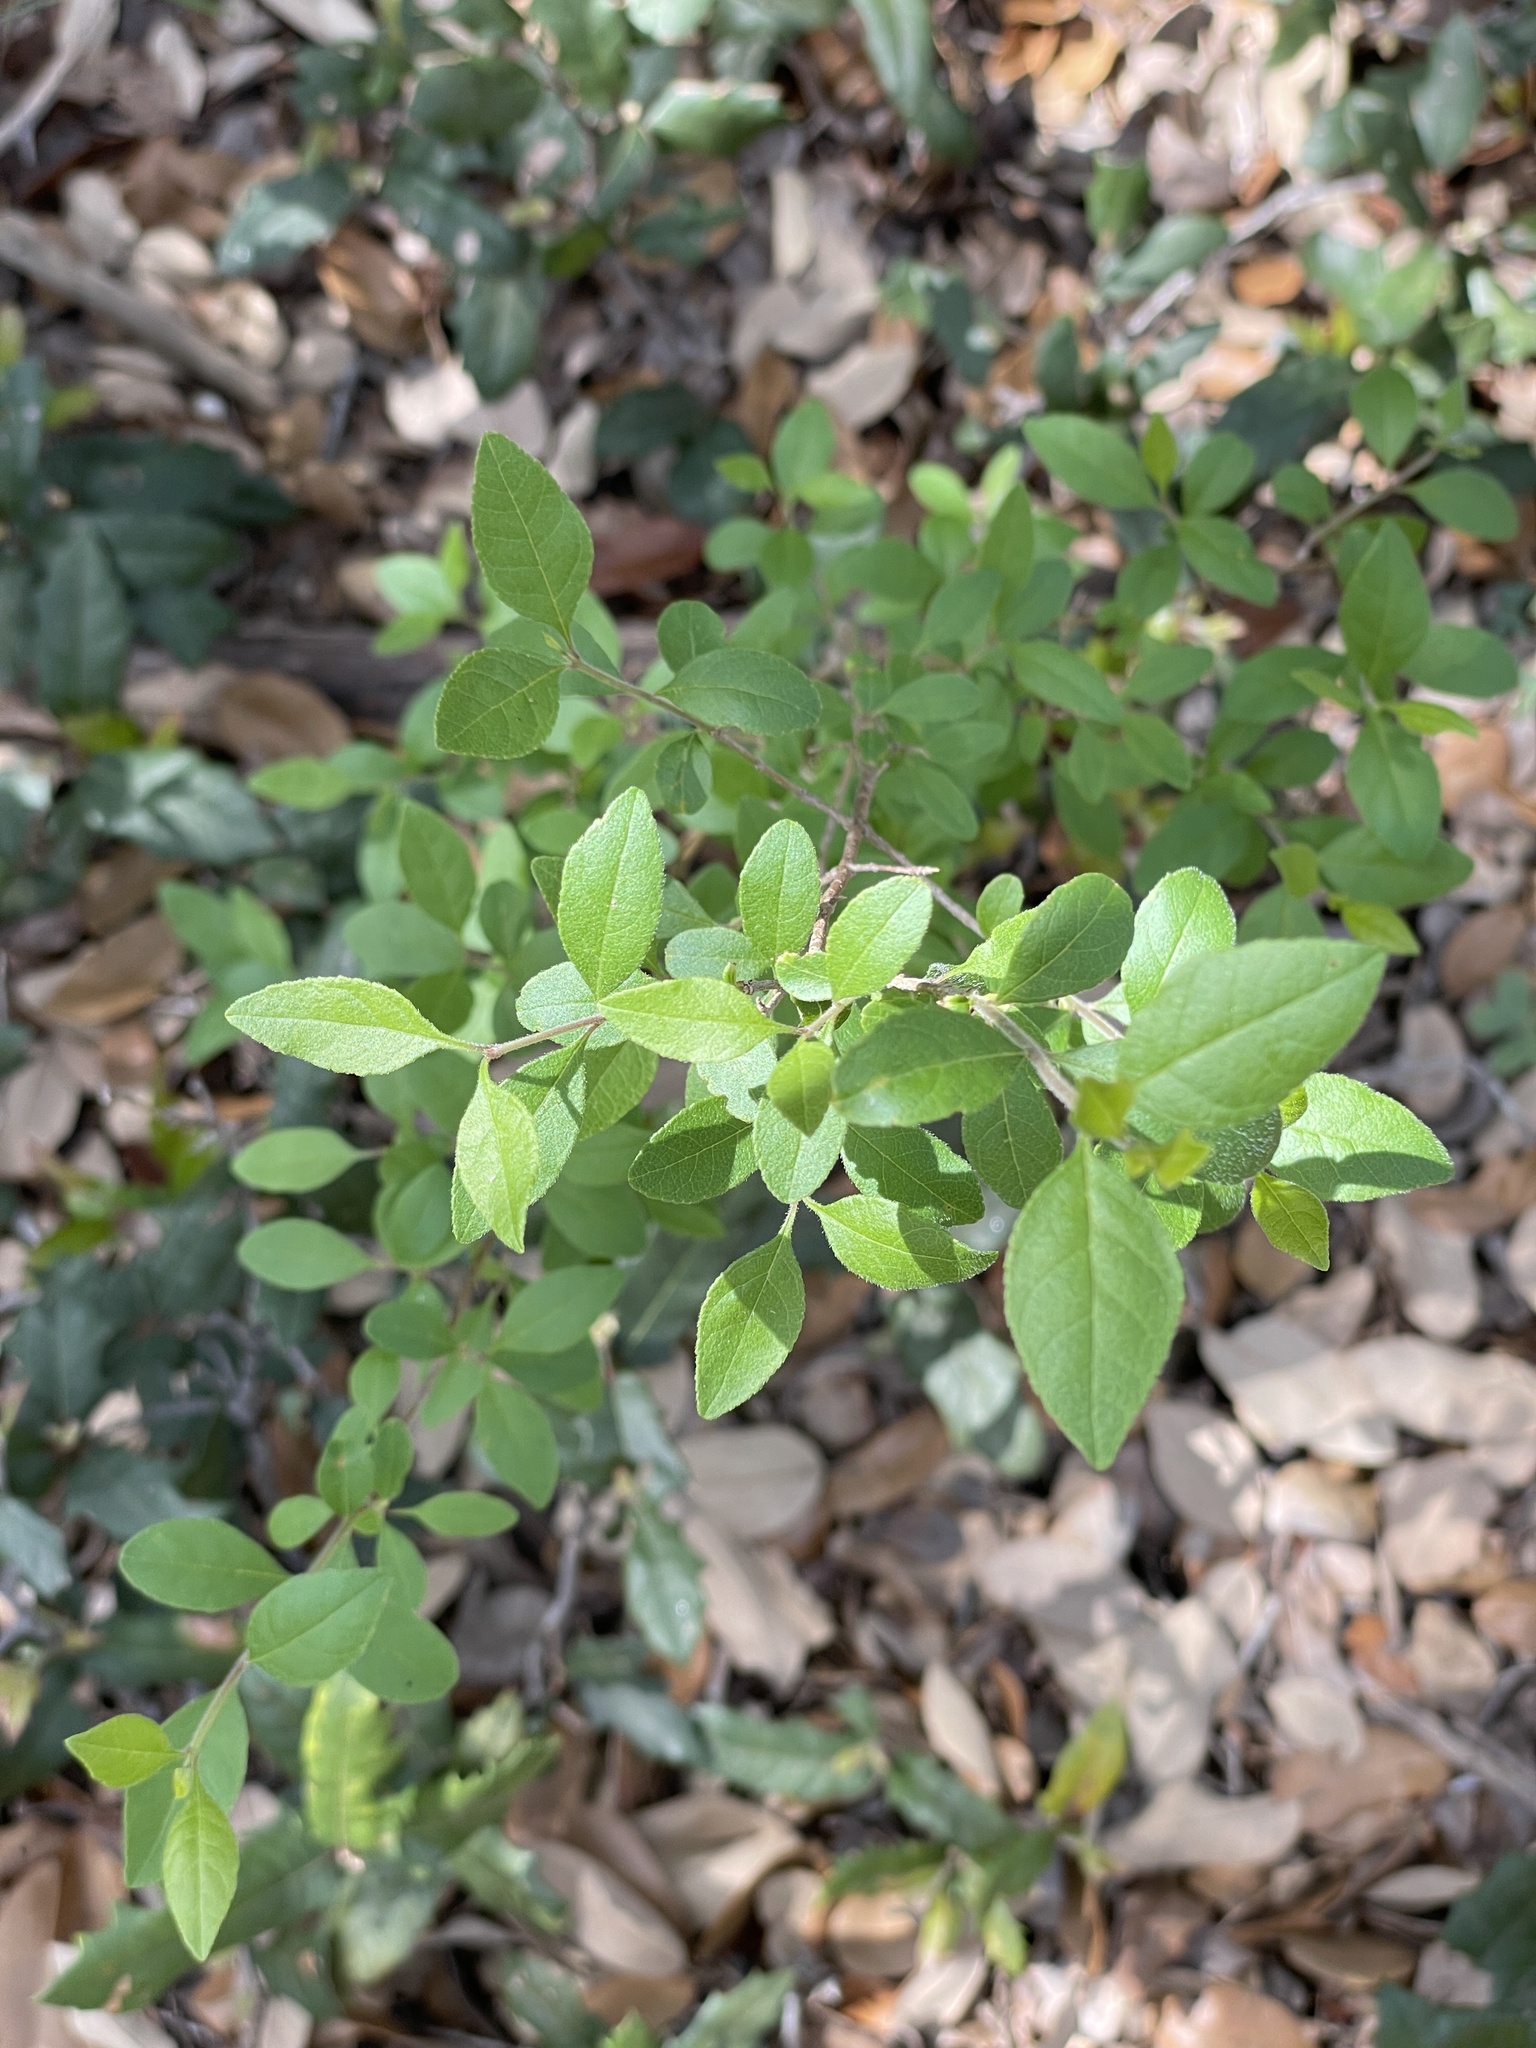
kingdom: Plantae
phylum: Tracheophyta
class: Magnoliopsida
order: Lamiales
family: Oleaceae
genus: Forestiera
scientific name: Forestiera pubescens
